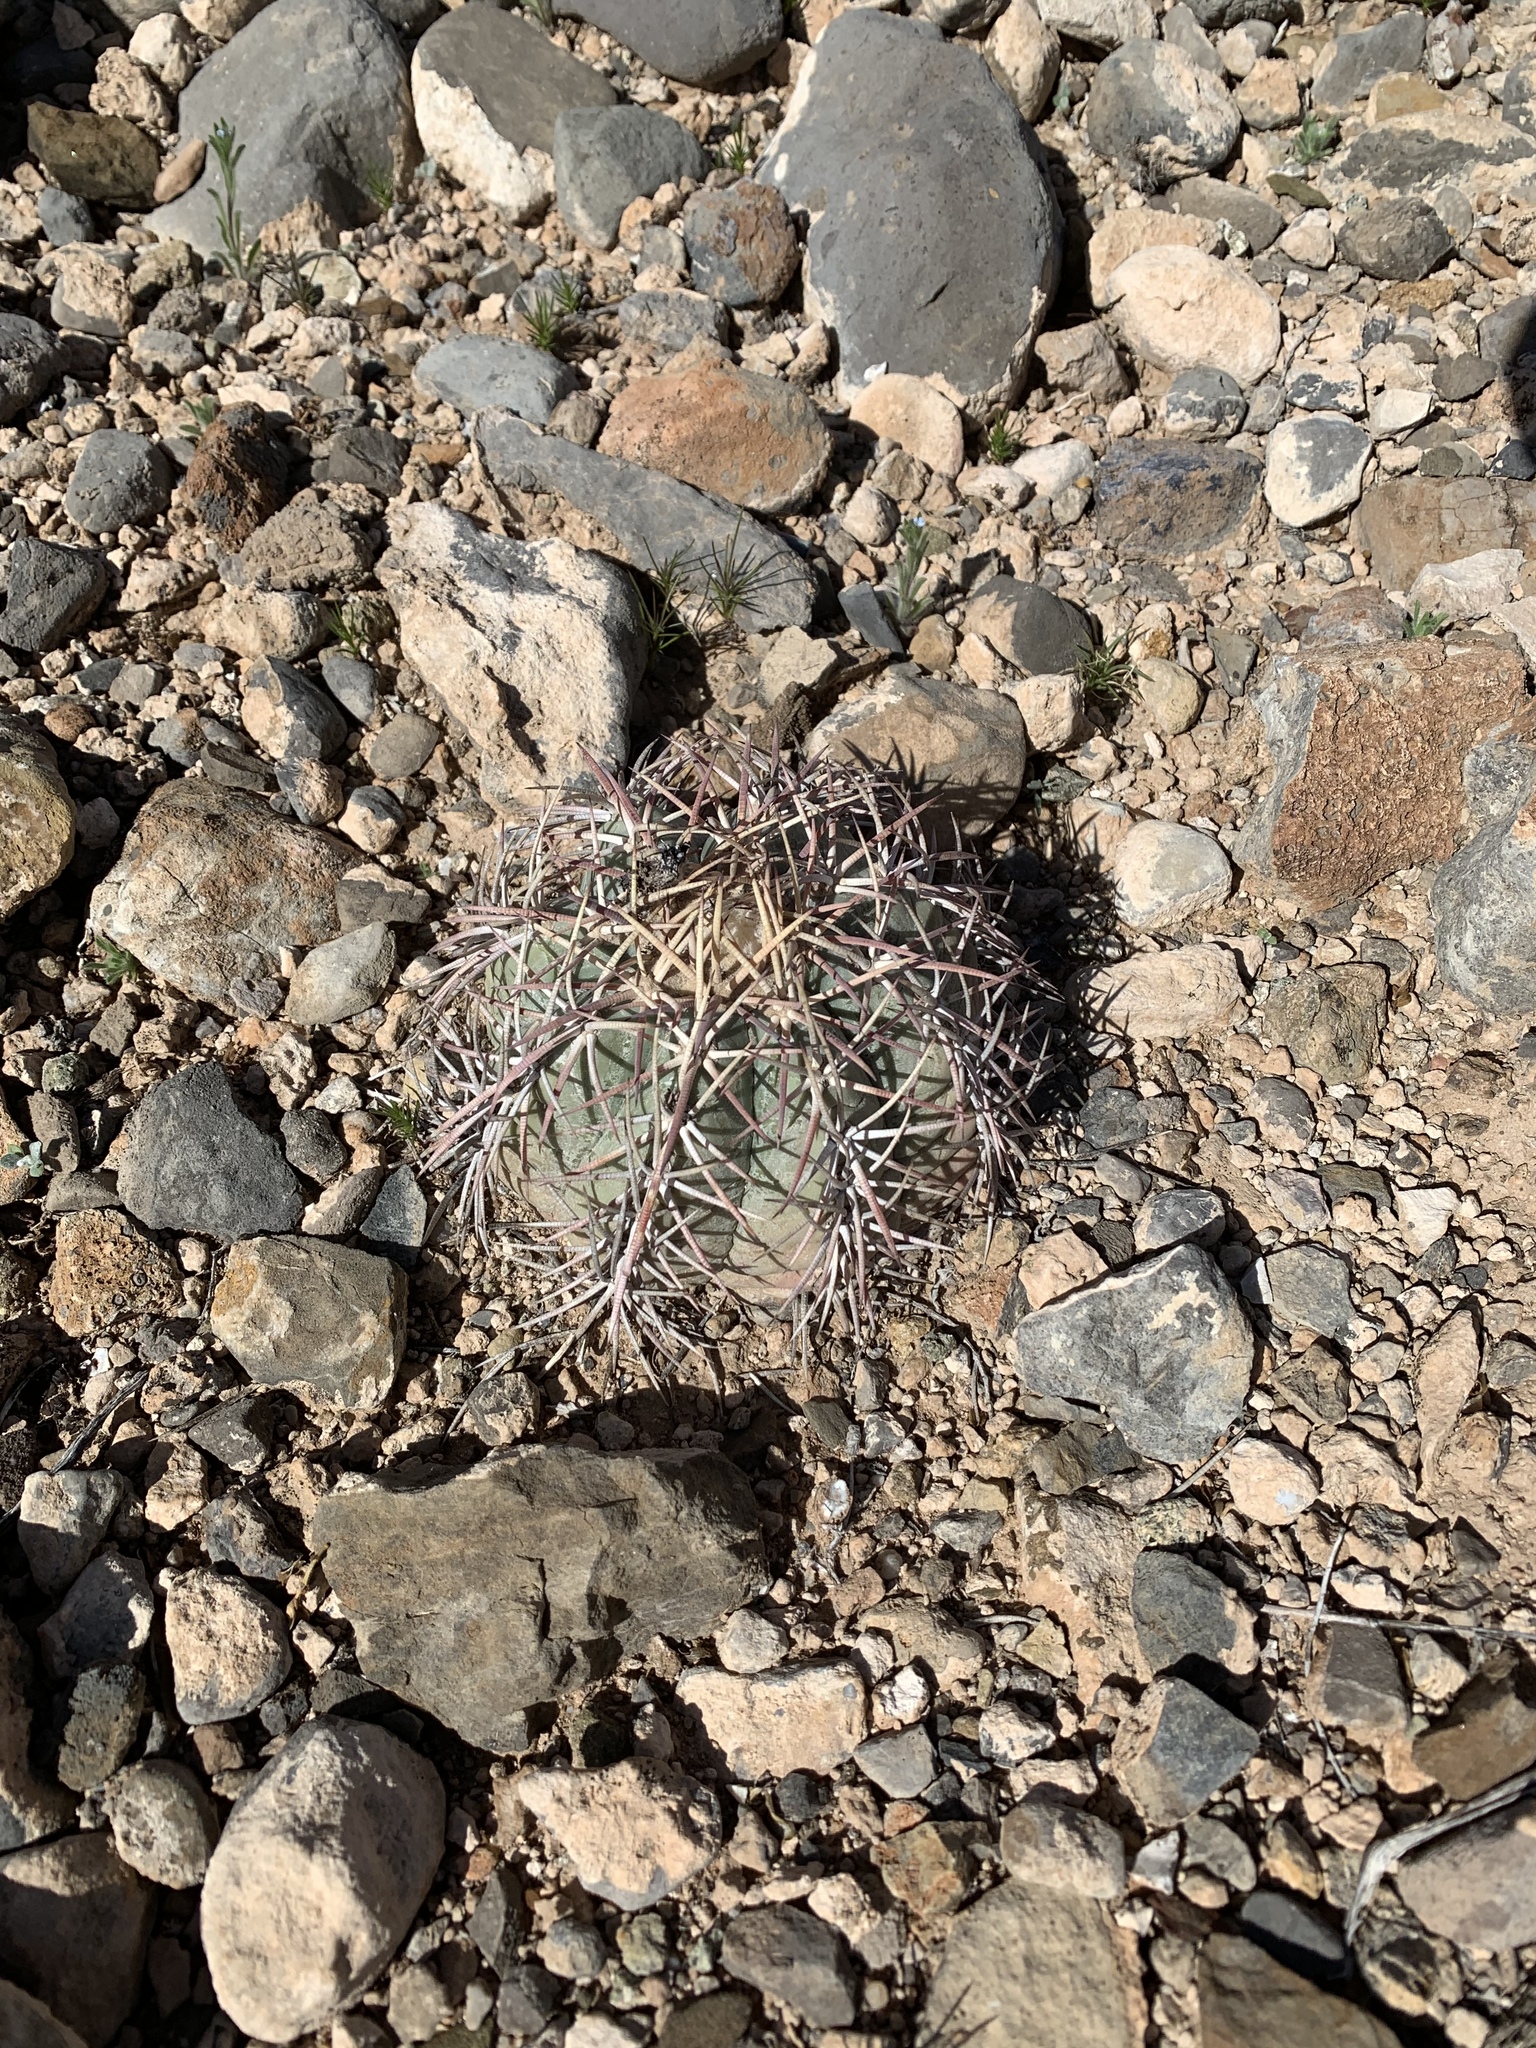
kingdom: Plantae
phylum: Tracheophyta
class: Magnoliopsida
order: Caryophyllales
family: Cactaceae
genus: Echinocactus
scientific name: Echinocactus horizonthalonius
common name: Devilshead
